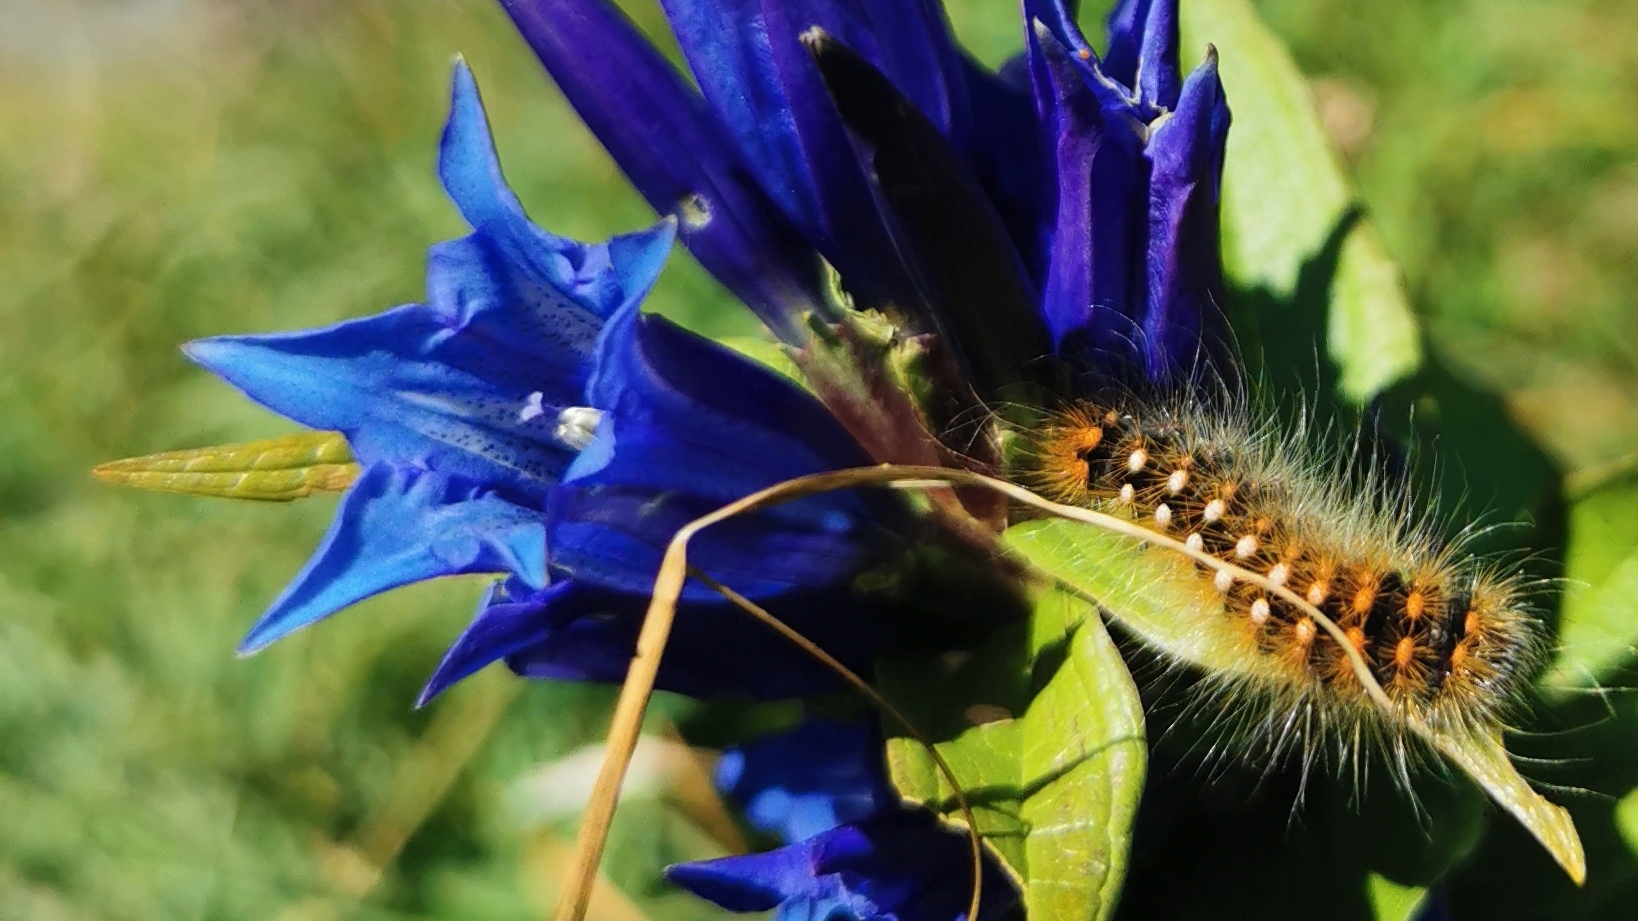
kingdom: Animalia
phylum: Arthropoda
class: Insecta
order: Lepidoptera
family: Noctuidae
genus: Acronicta
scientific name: Acronicta auricoma
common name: Scarce dagger
